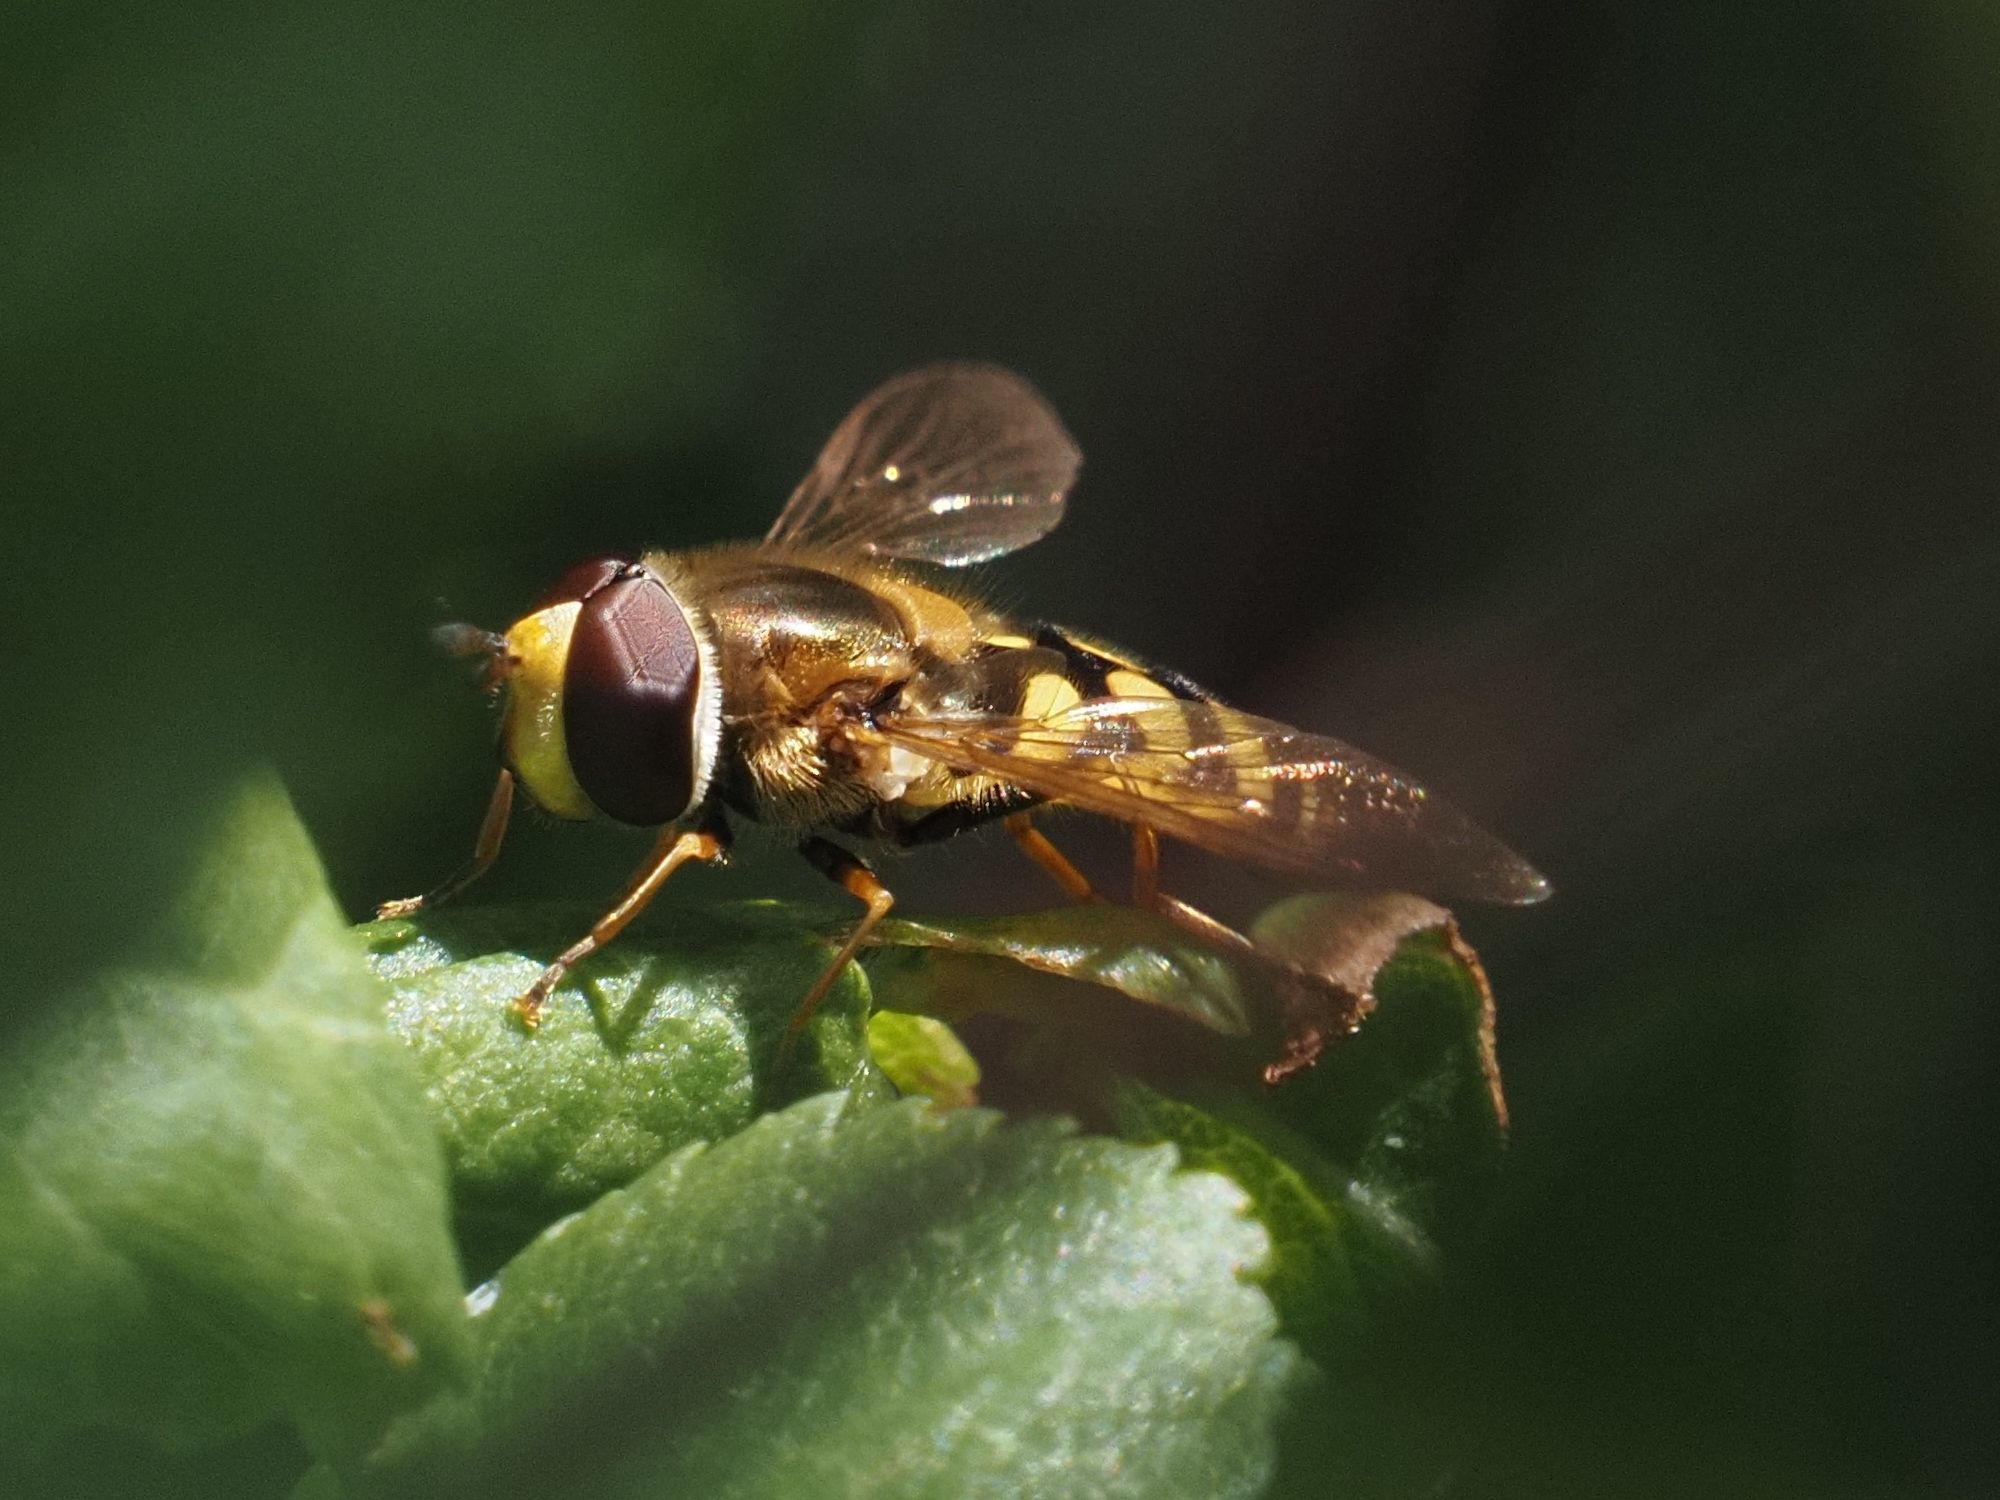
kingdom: Animalia
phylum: Arthropoda
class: Insecta
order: Diptera
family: Syrphidae
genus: Eupeodes
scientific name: Eupeodes corollae
